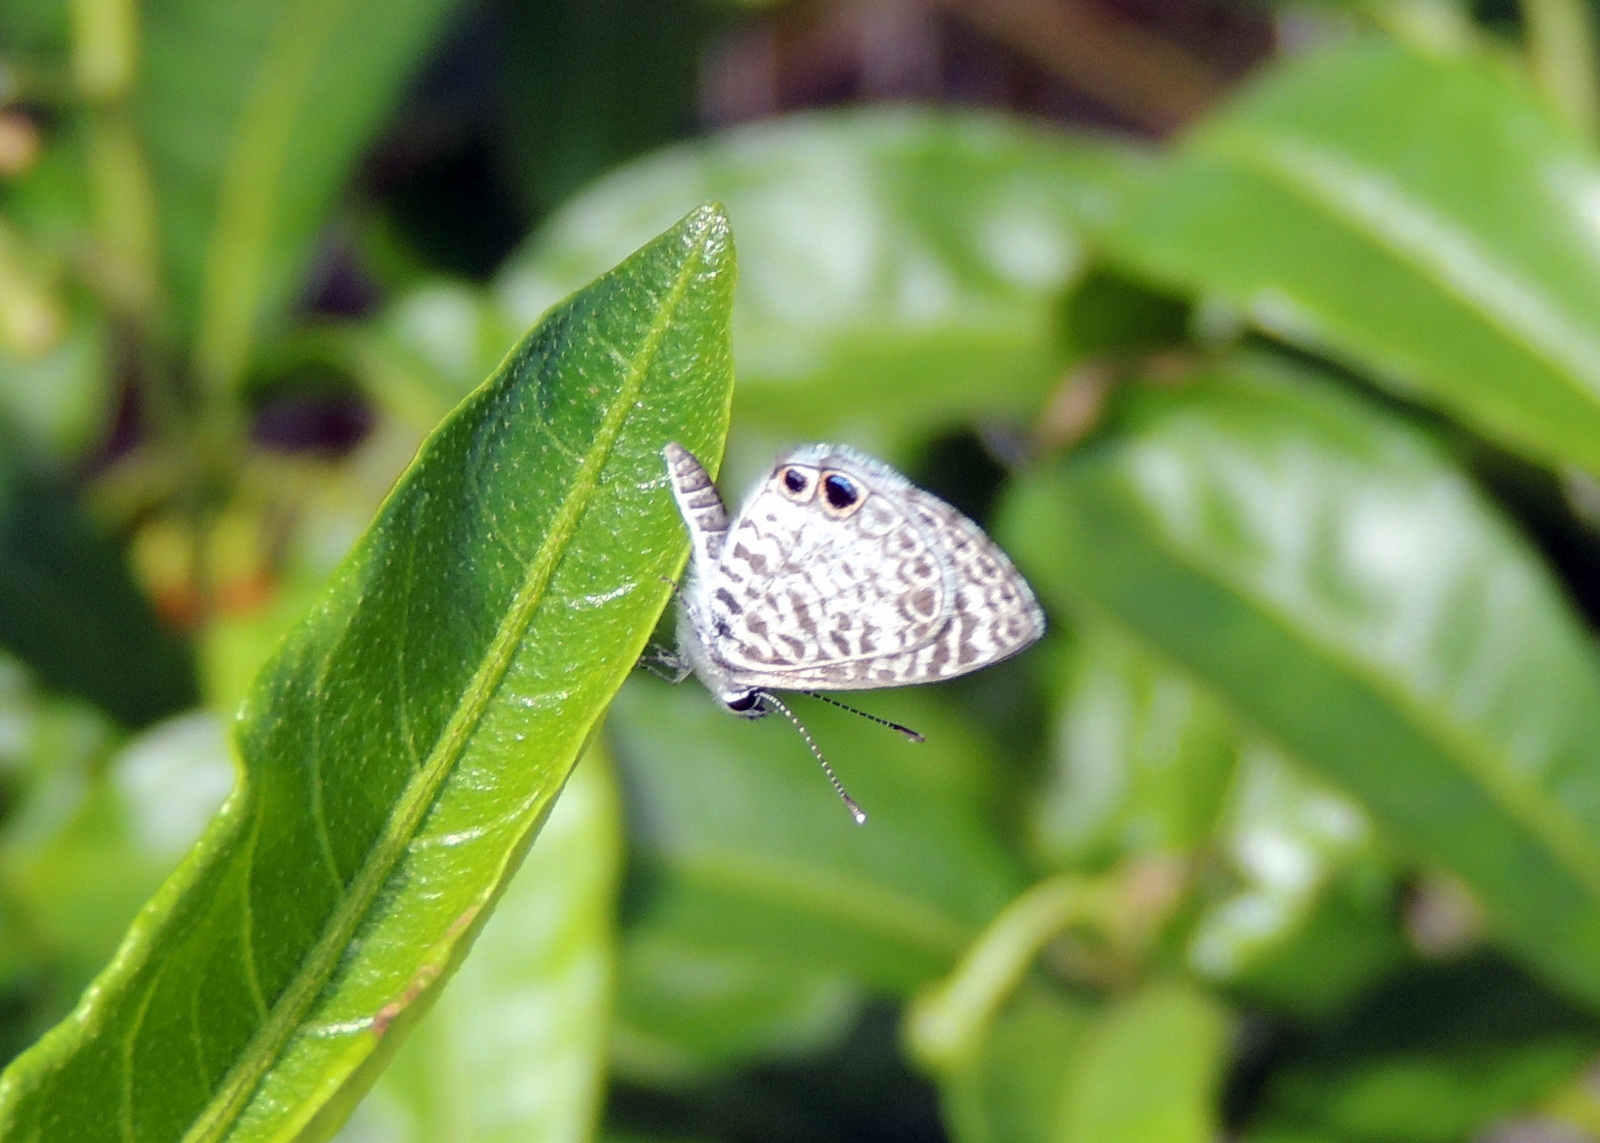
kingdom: Animalia
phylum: Arthropoda
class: Insecta
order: Lepidoptera
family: Lycaenidae
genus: Leptotes
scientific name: Leptotes cassius
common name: Cassius blue
